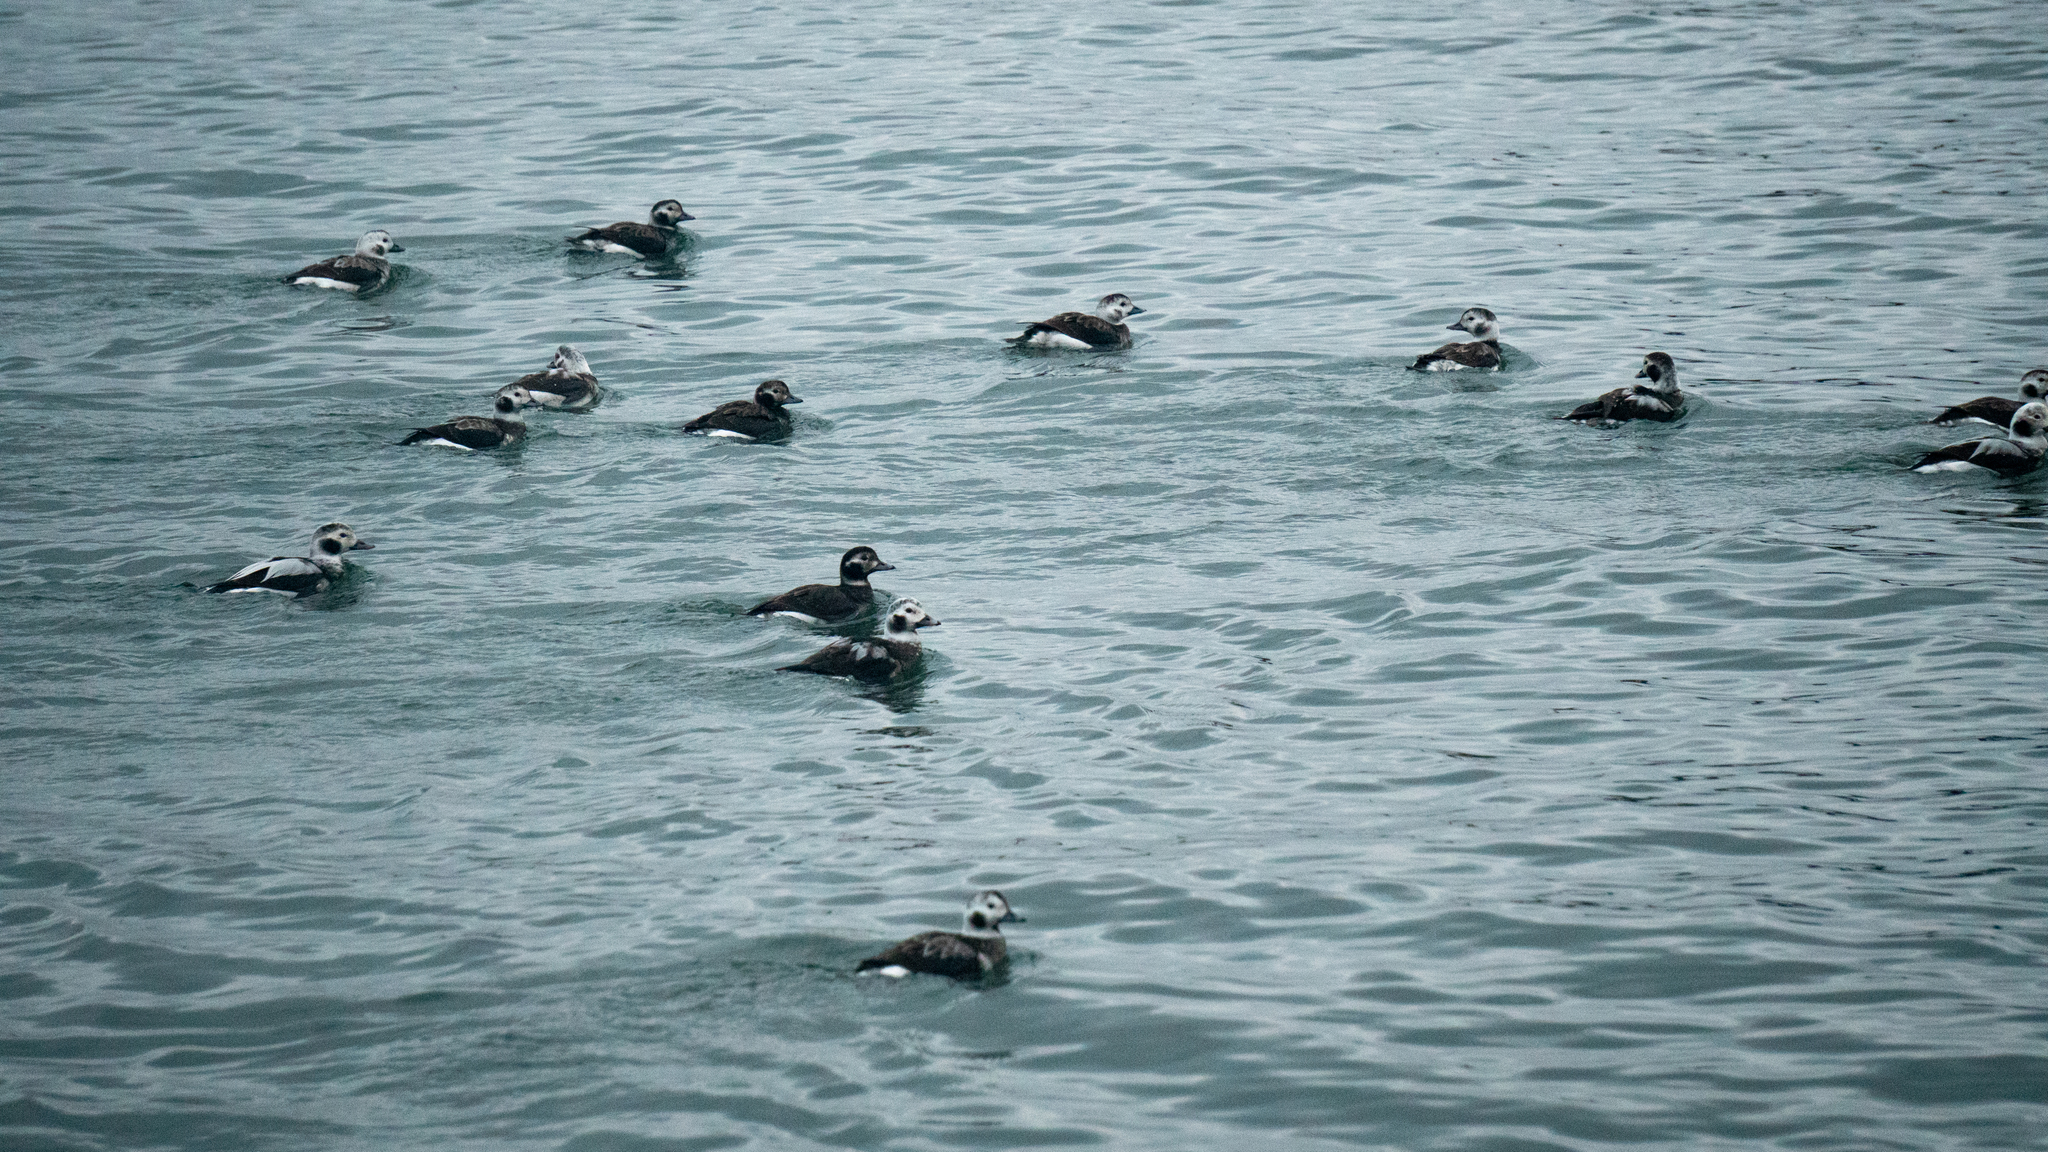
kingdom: Animalia
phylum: Chordata
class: Aves
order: Anseriformes
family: Anatidae
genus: Clangula
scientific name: Clangula hyemalis
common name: Long-tailed duck
